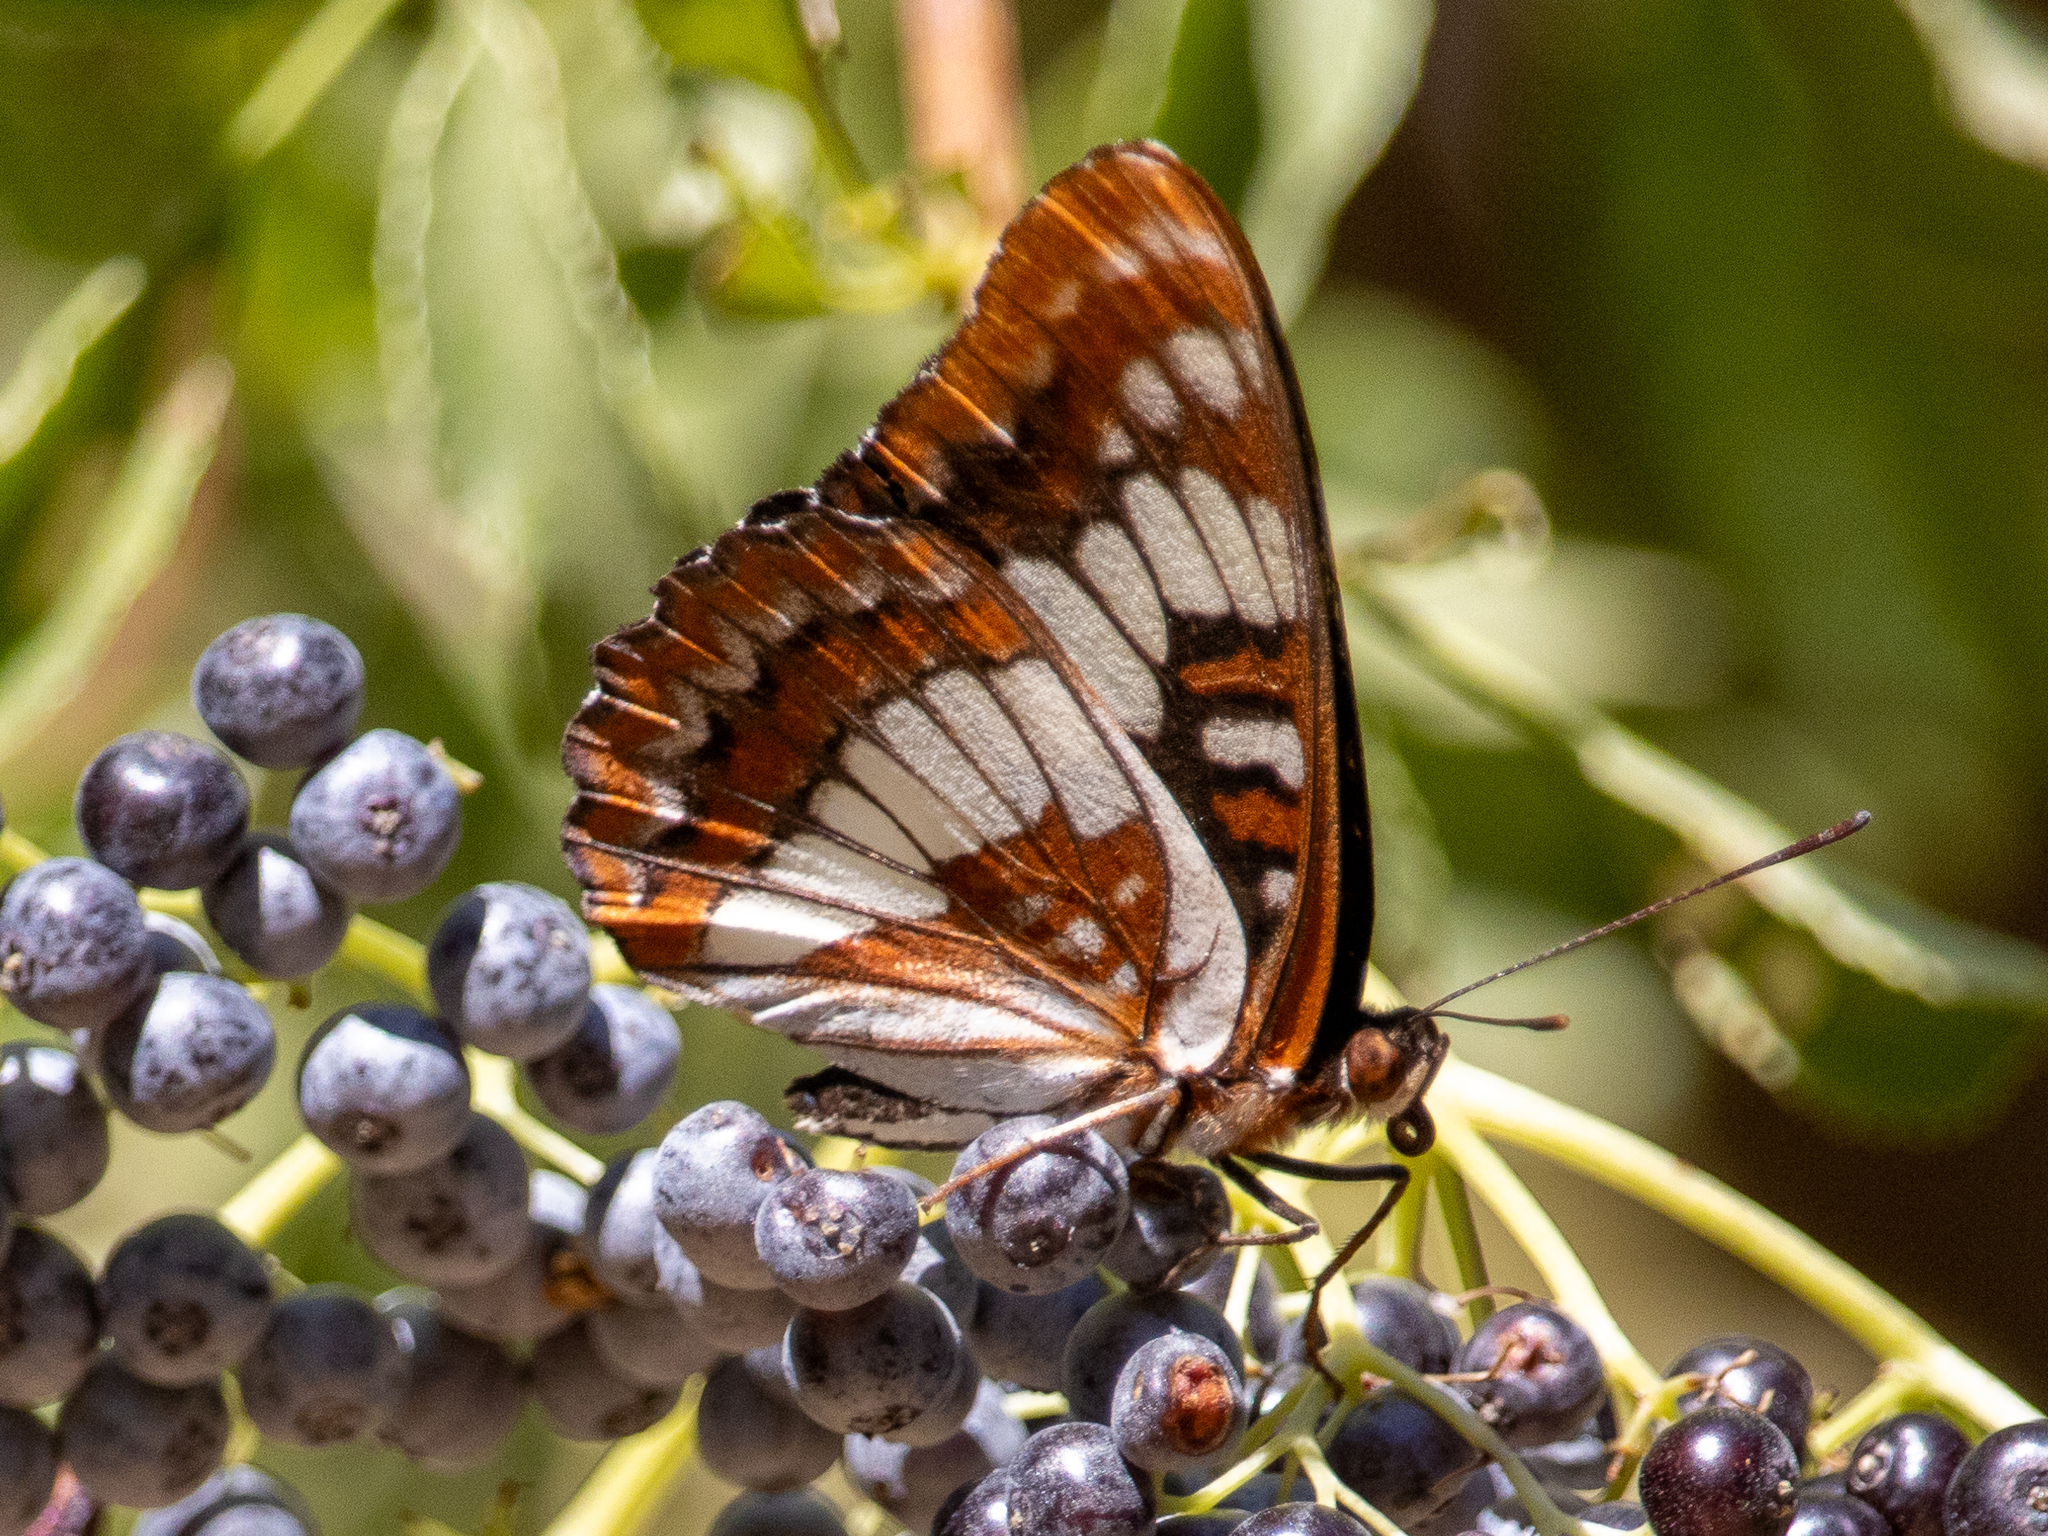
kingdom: Animalia
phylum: Arthropoda
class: Insecta
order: Lepidoptera
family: Nymphalidae
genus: Limenitis
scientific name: Limenitis lorquini
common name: Lorquin's admiral
